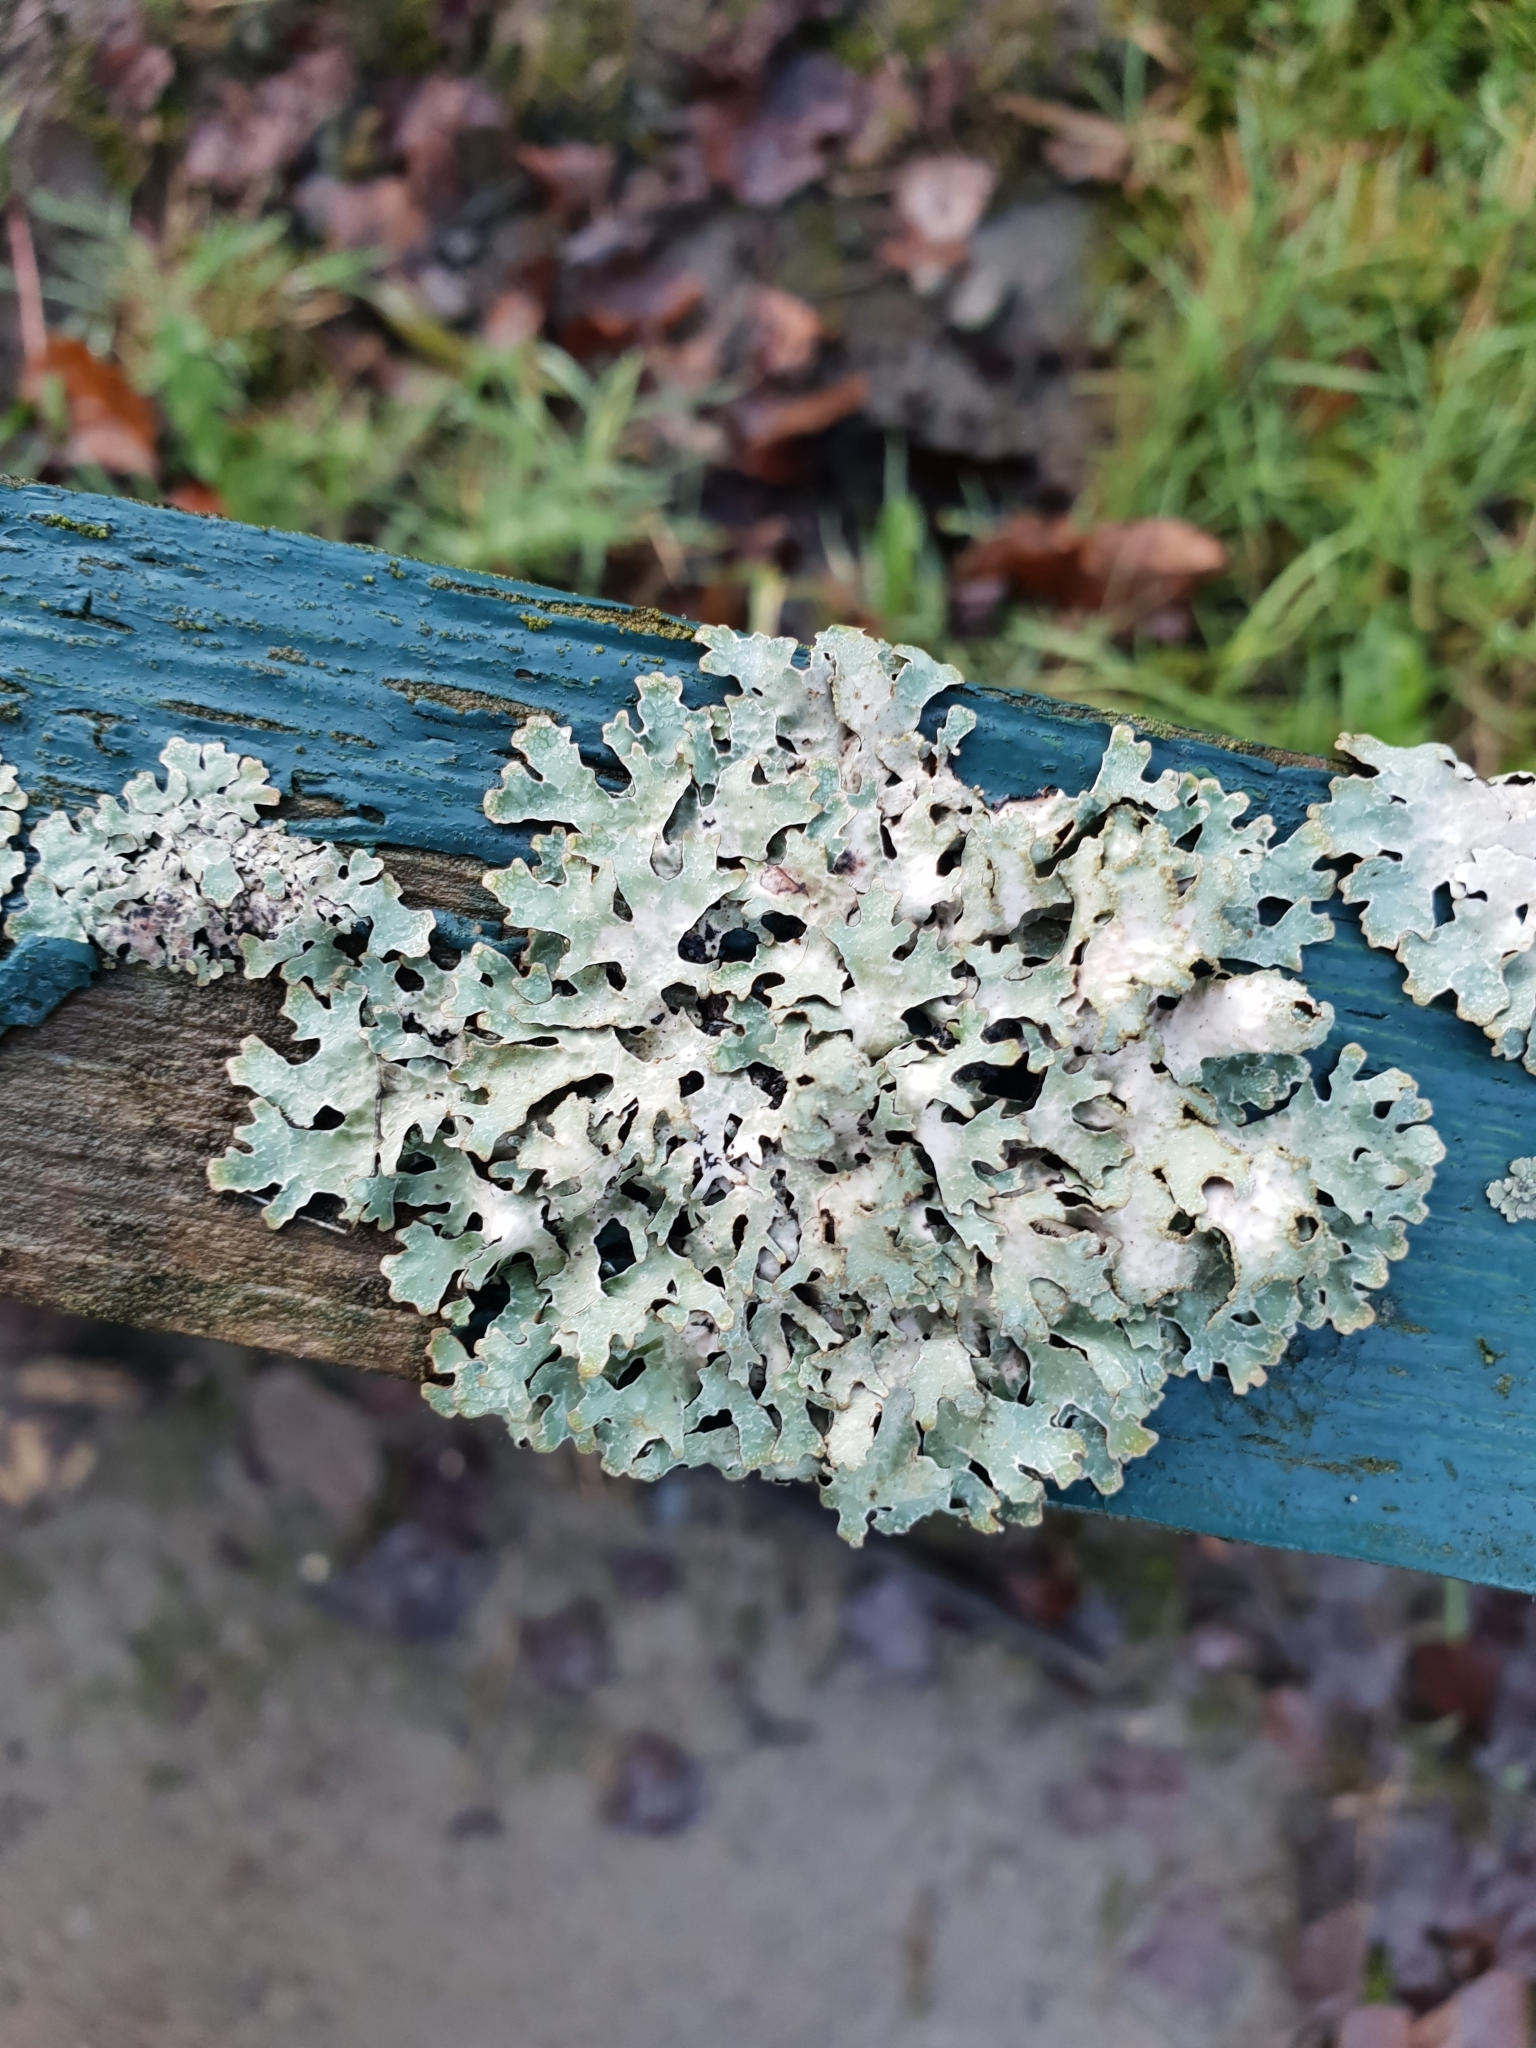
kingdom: Fungi
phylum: Ascomycota
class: Lecanoromycetes
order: Lecanorales
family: Parmeliaceae
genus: Parmelia
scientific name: Parmelia sulcata
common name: Netted shield lichen
